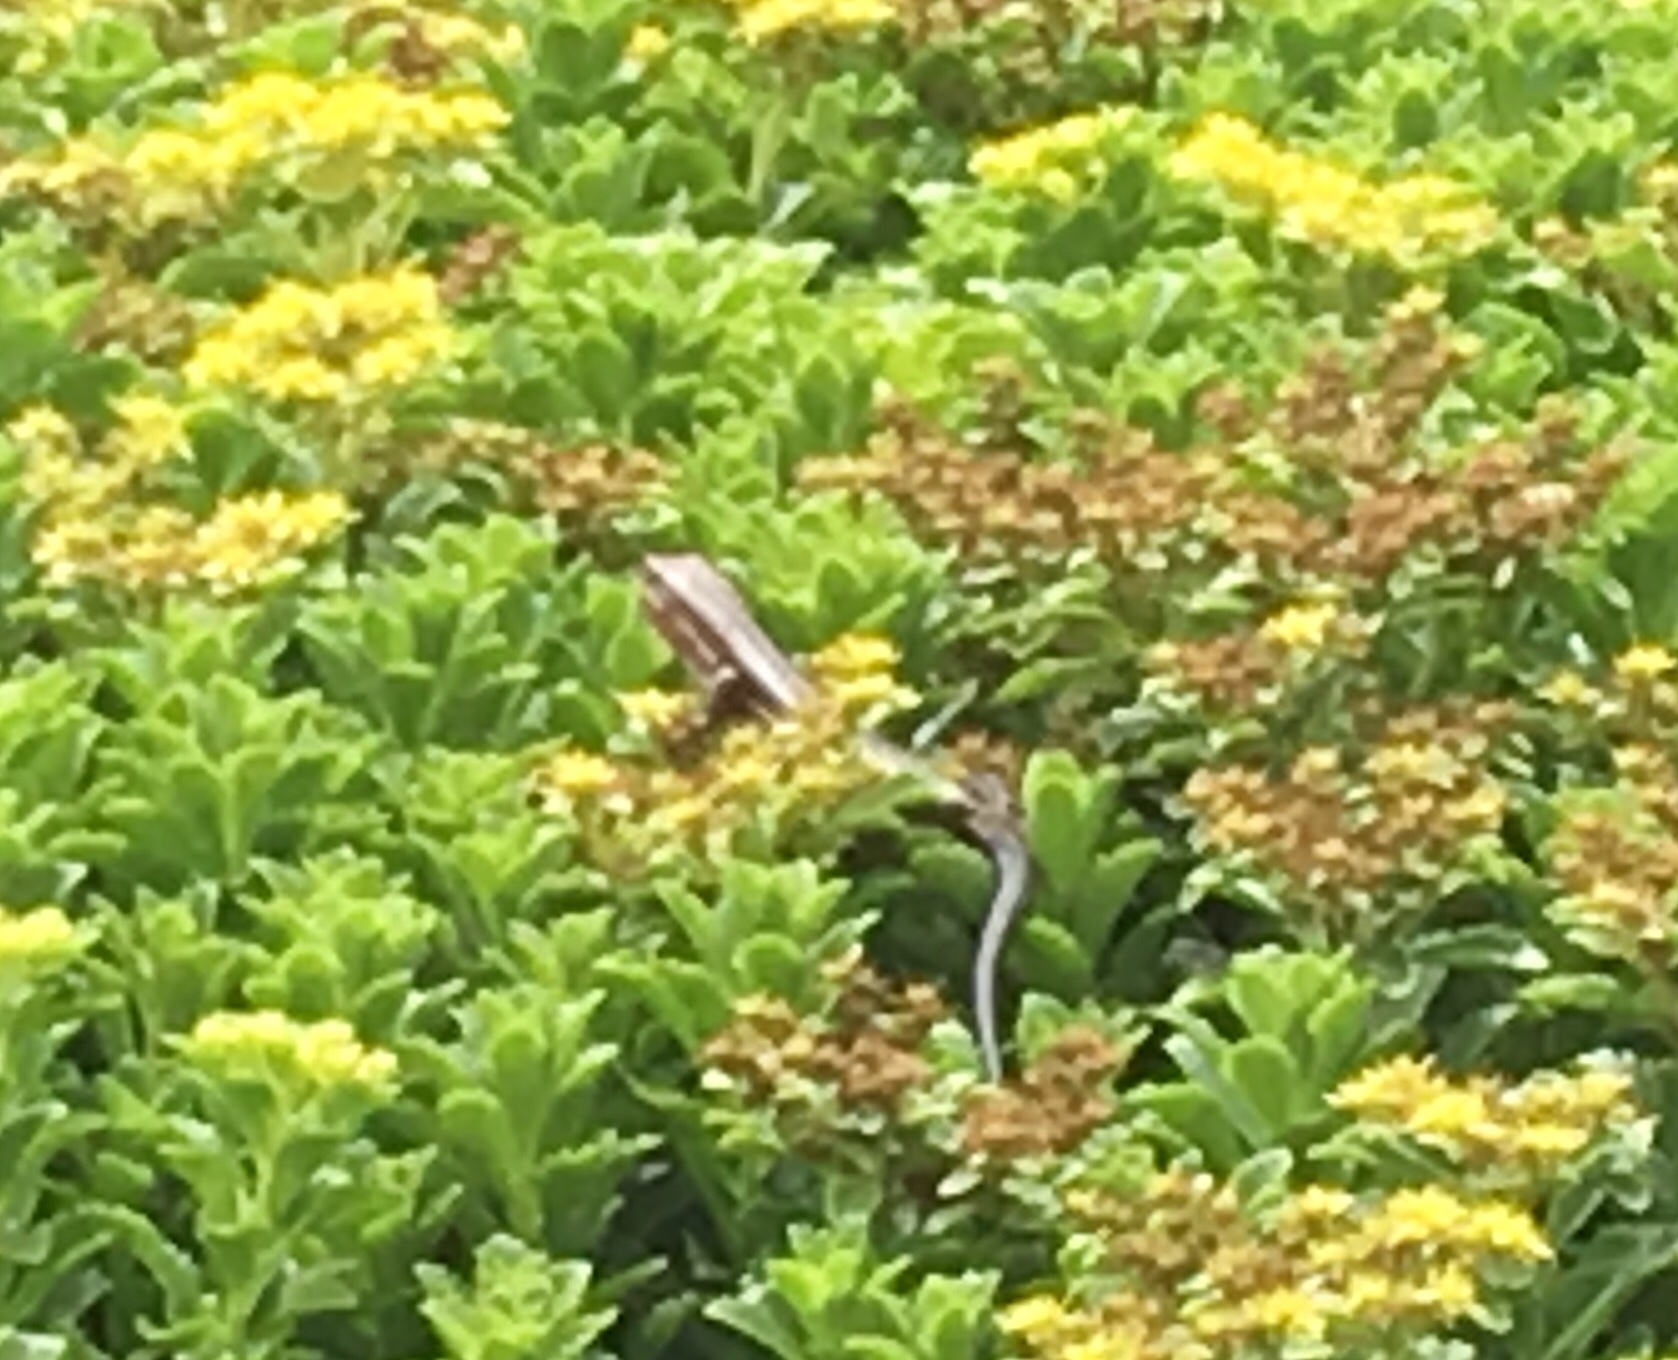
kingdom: Animalia
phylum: Chordata
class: Squamata
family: Scincidae
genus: Plestiodon
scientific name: Plestiodon laticeps
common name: Broadhead skink
